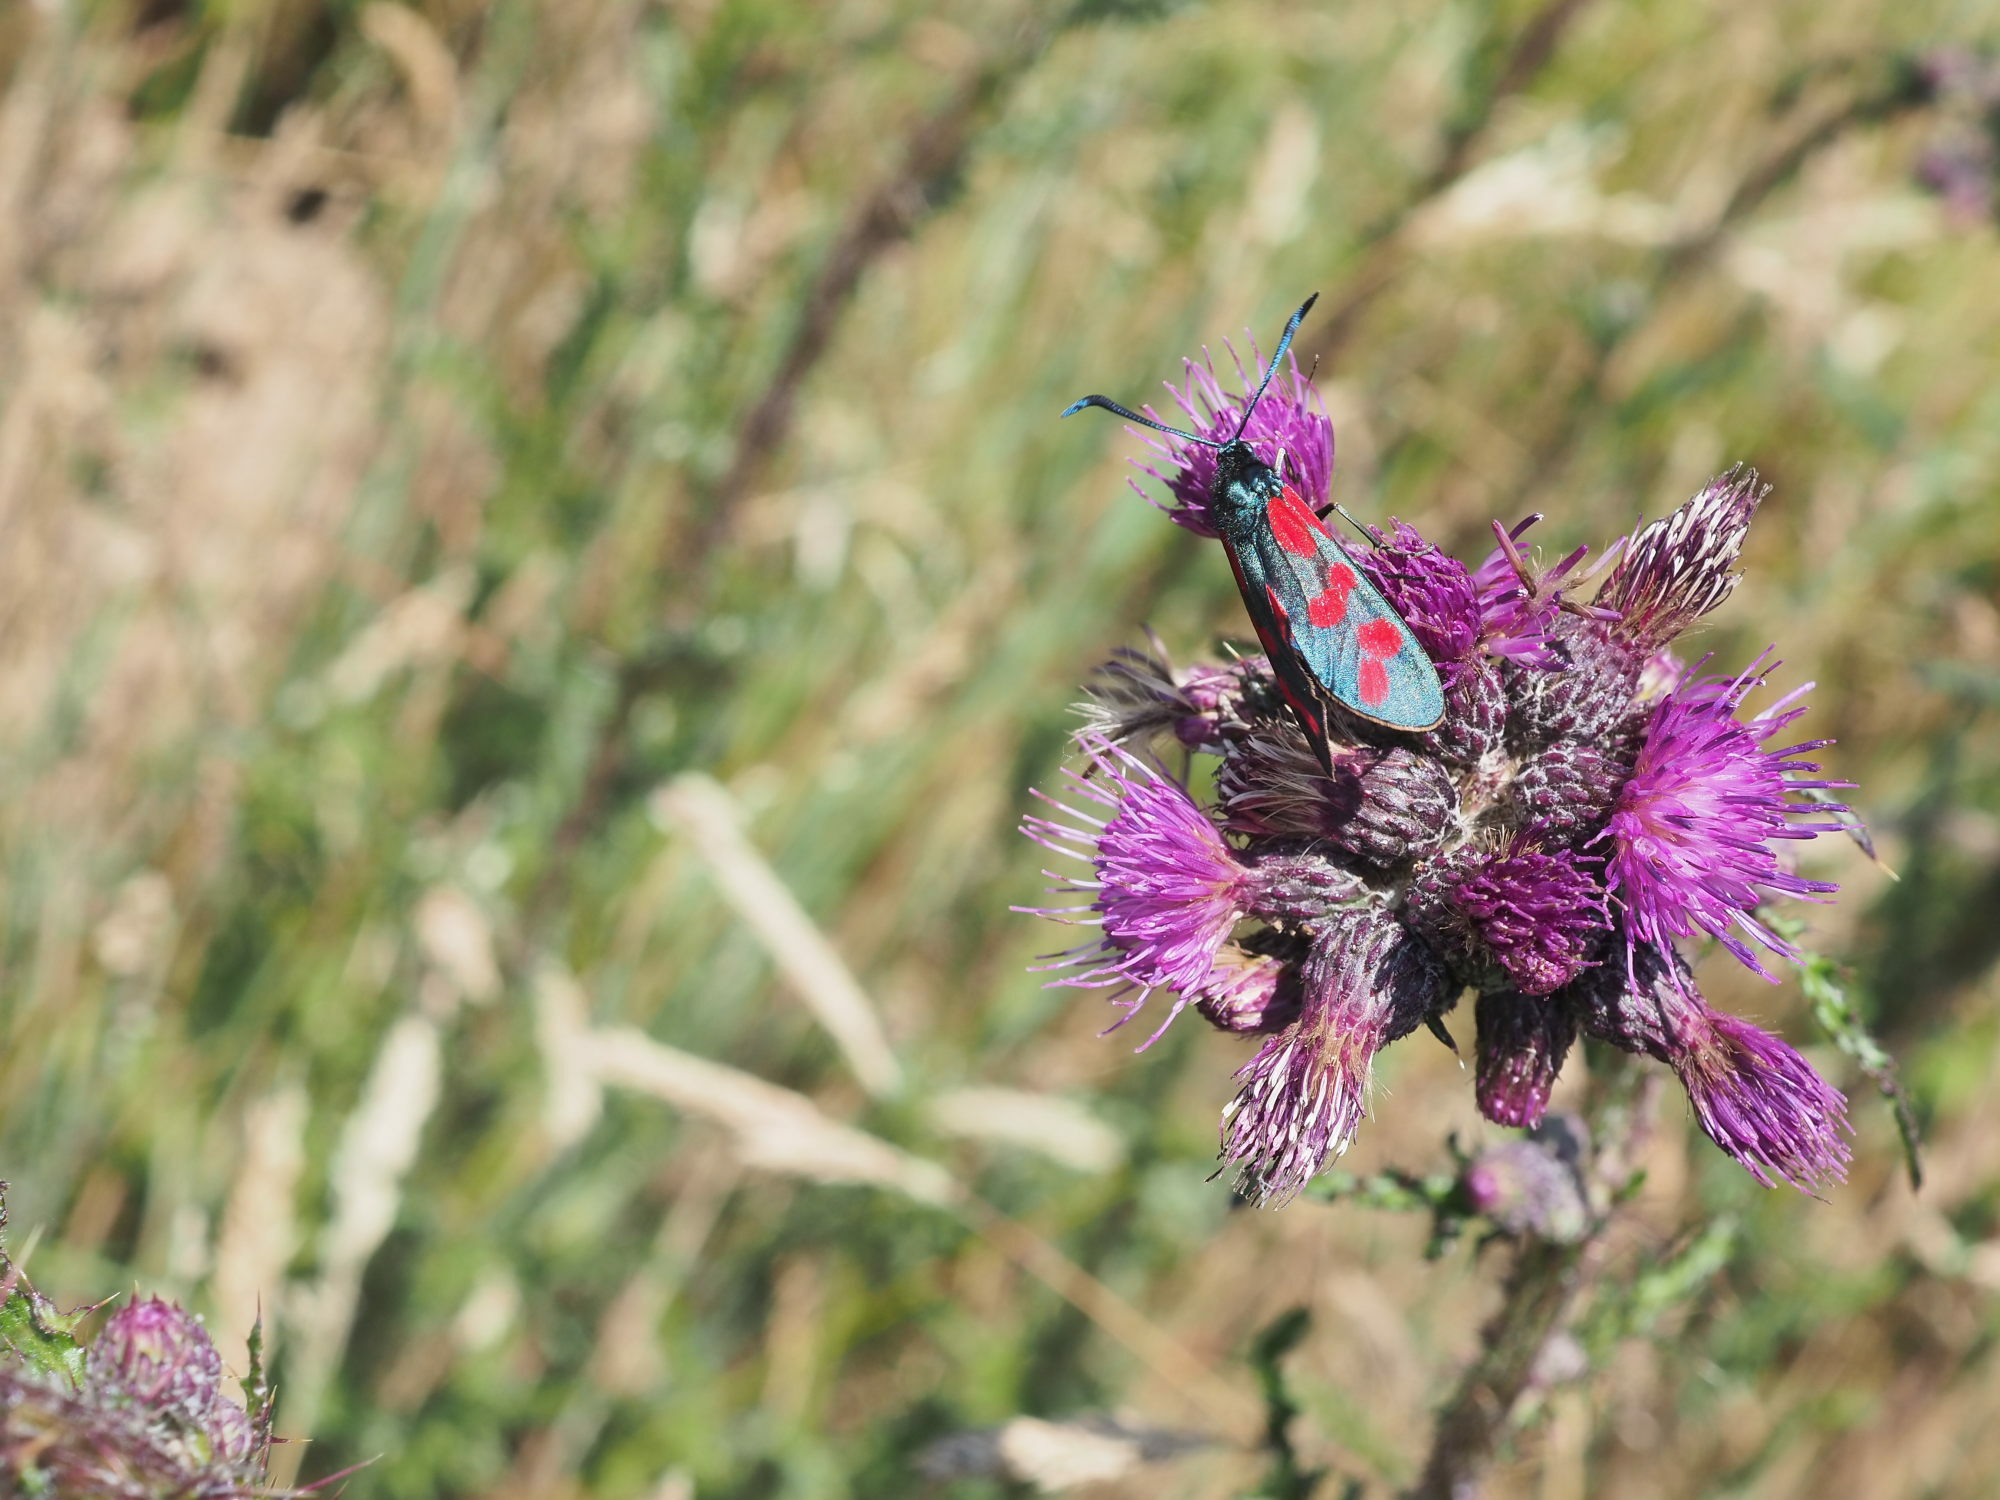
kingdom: Animalia
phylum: Arthropoda
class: Insecta
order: Lepidoptera
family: Zygaenidae
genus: Zygaena
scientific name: Zygaena filipendulae
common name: Six-spot burnet
